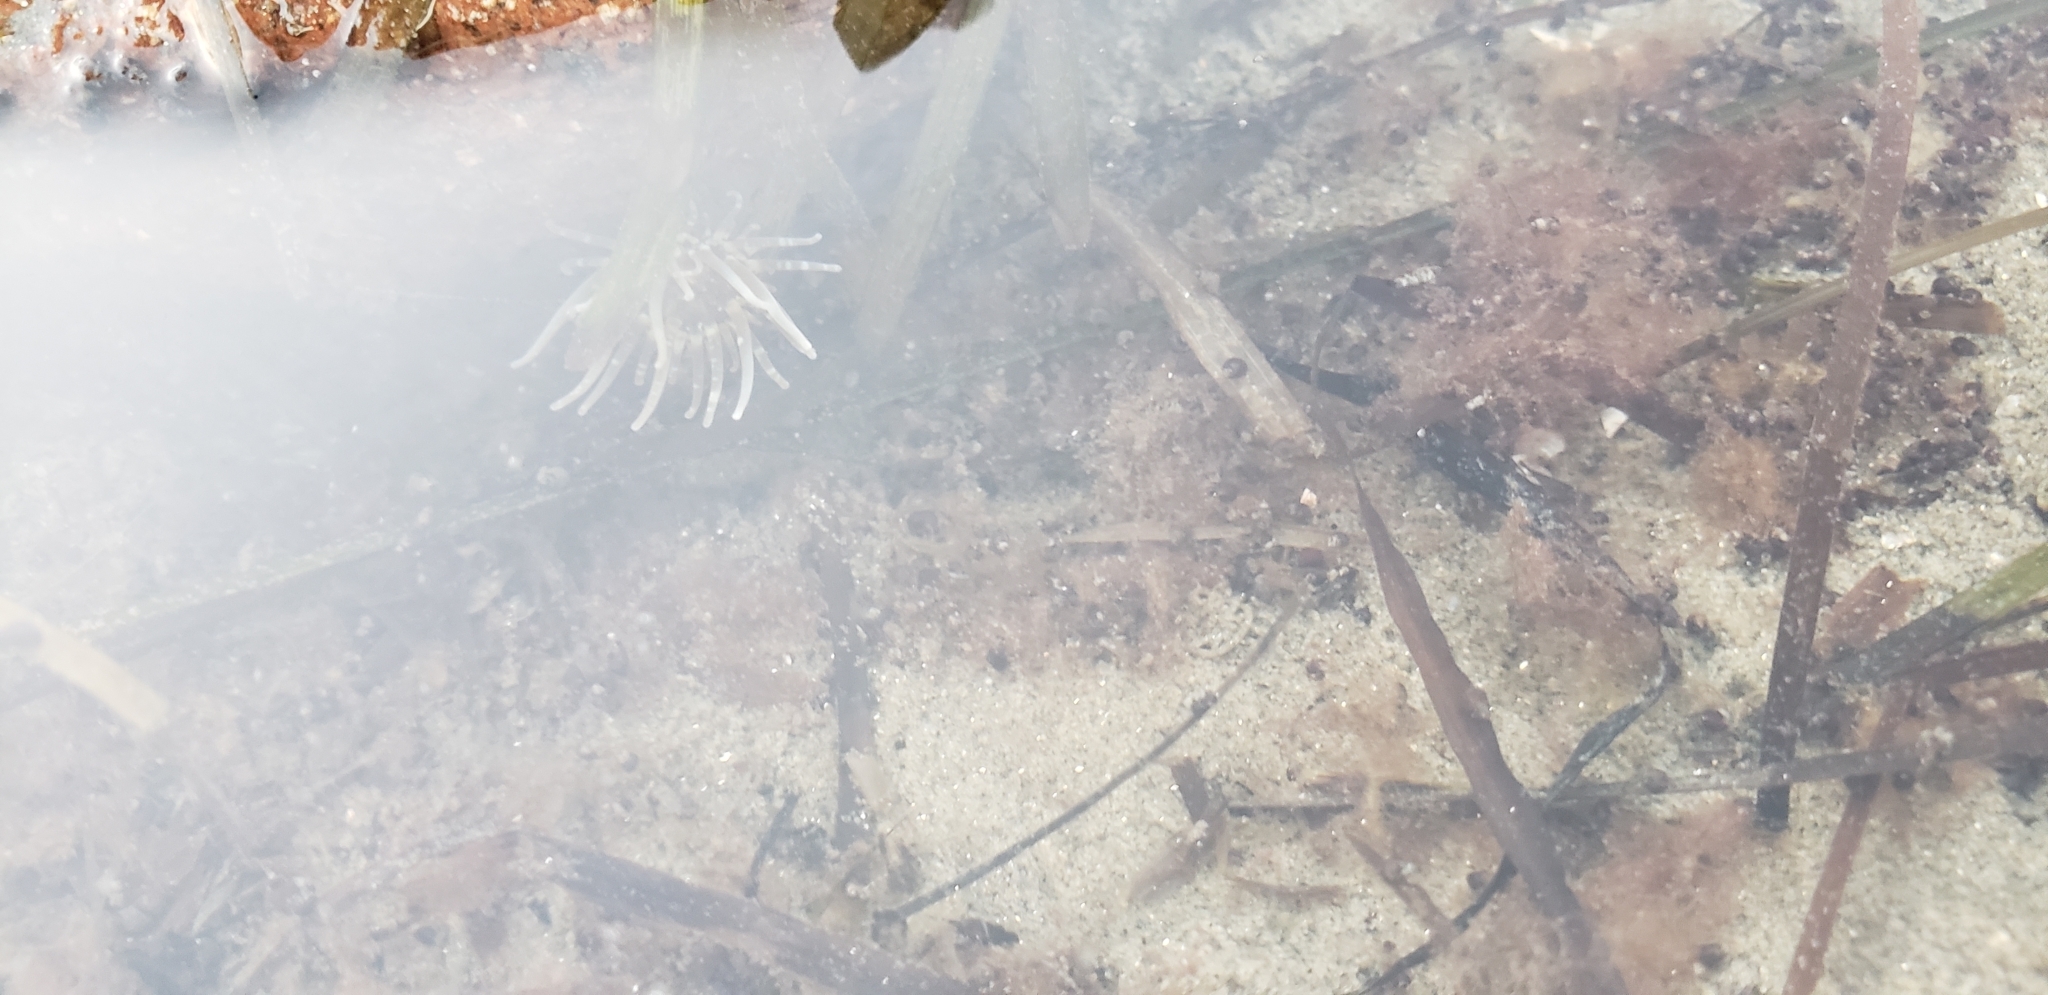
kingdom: Animalia
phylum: Cnidaria
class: Anthozoa
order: Actiniaria
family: Aiptasiidae
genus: Exaiptasia
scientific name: Exaiptasia diaphana
